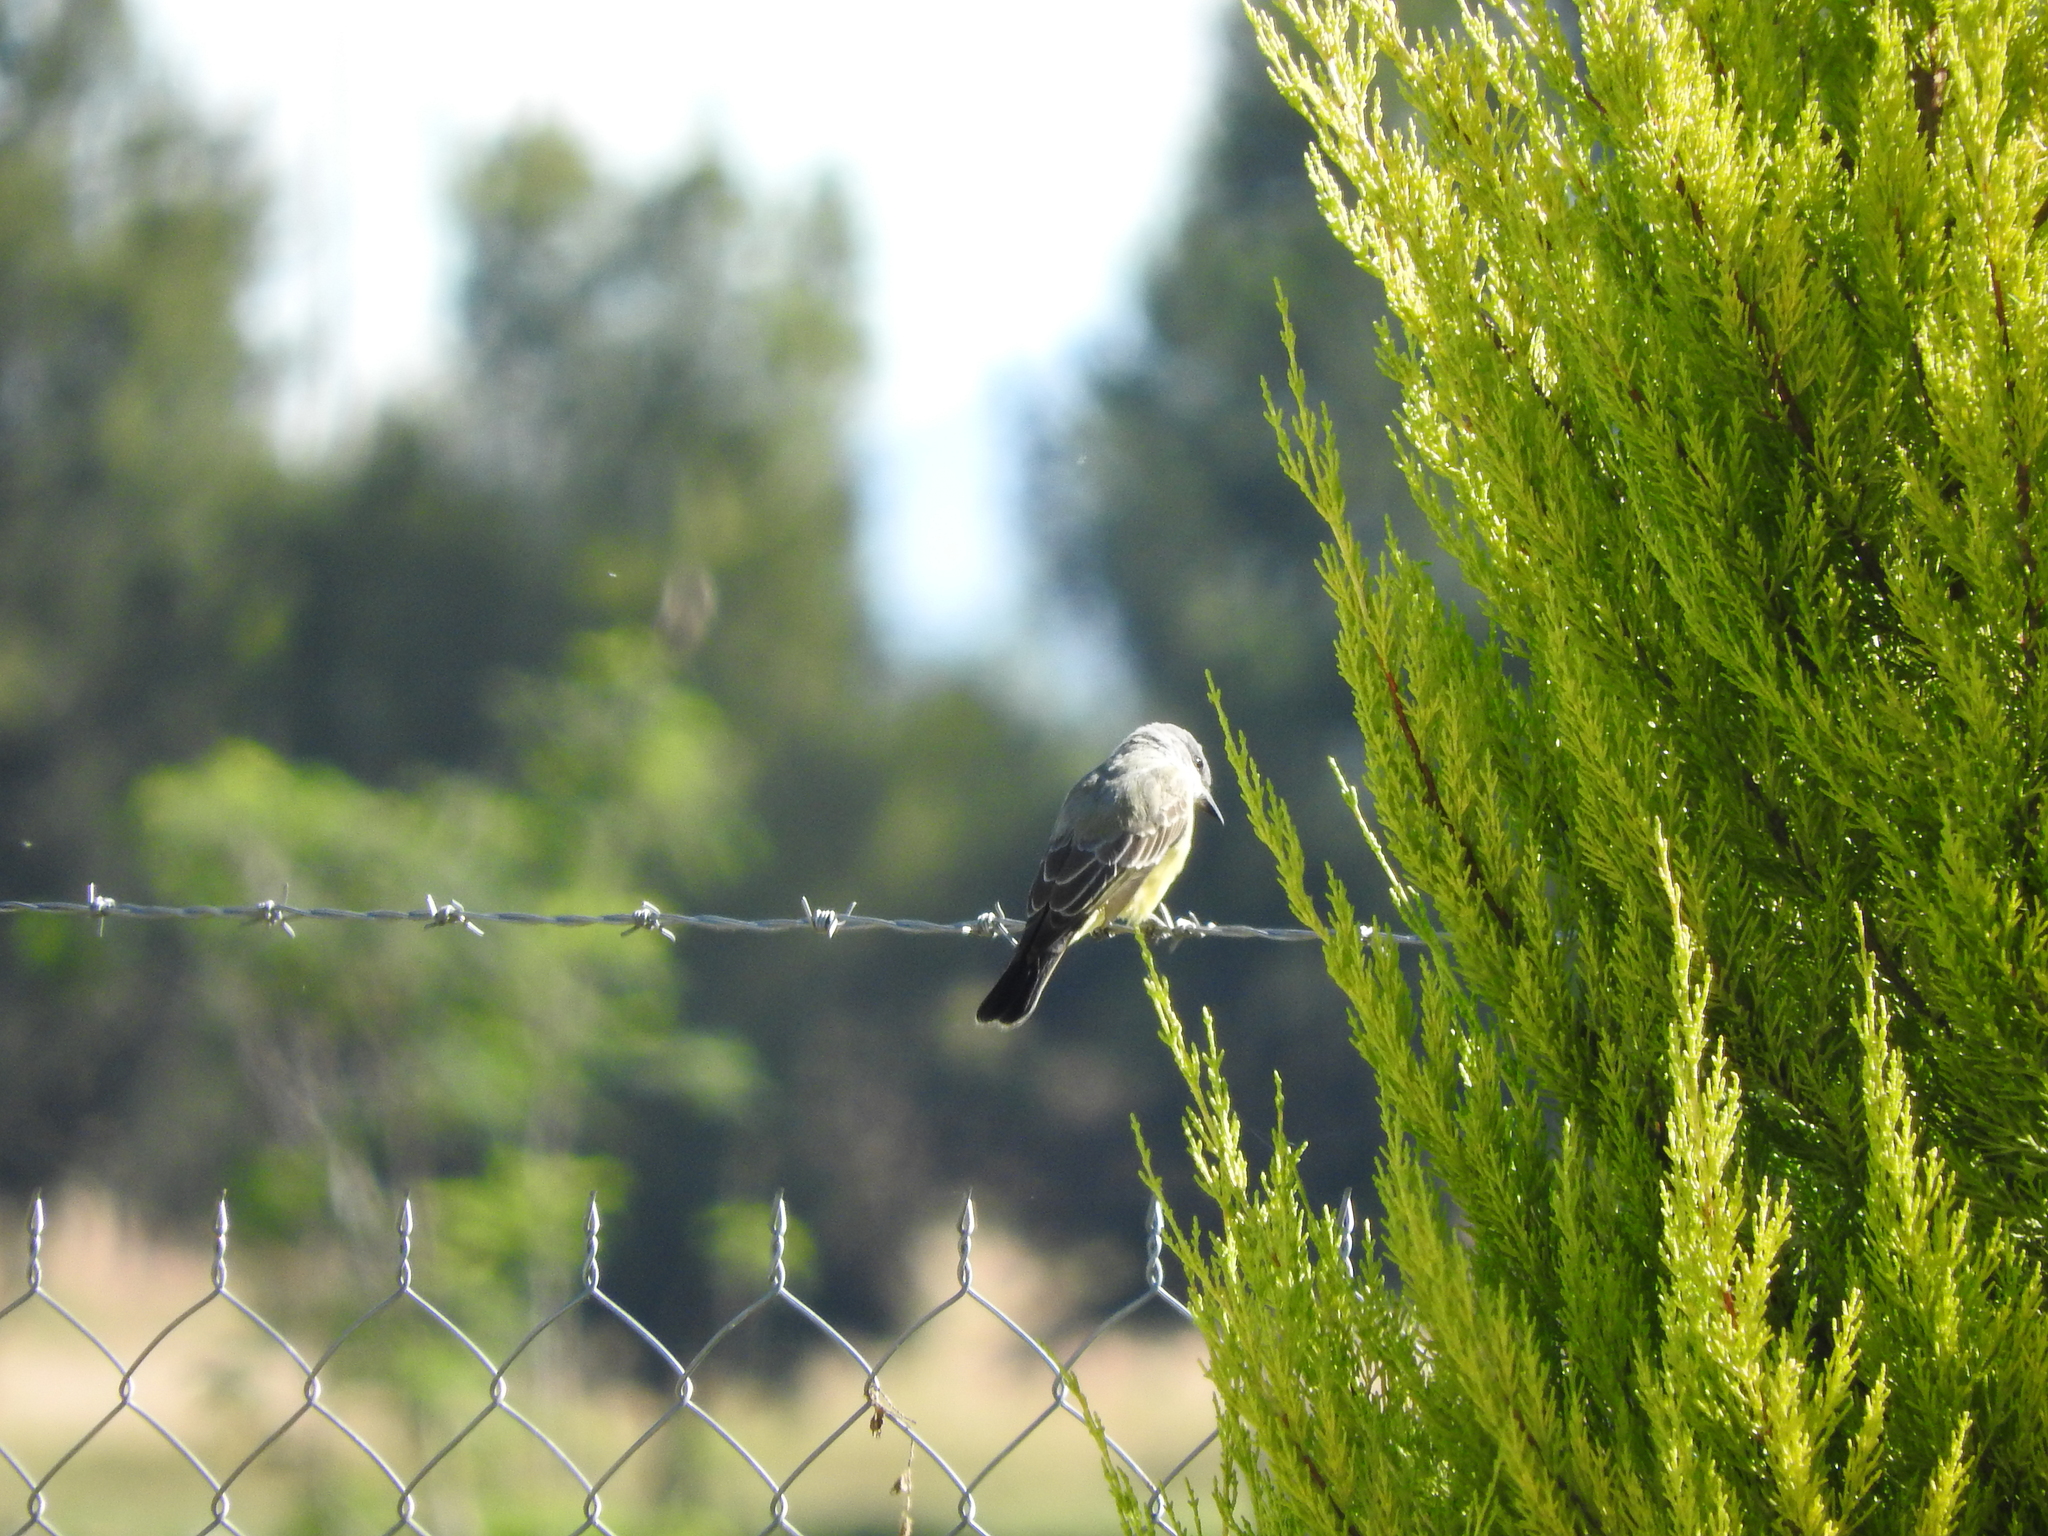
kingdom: Animalia
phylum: Chordata
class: Aves
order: Passeriformes
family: Tyrannidae
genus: Tyrannus
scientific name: Tyrannus vociferans
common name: Cassin's kingbird
